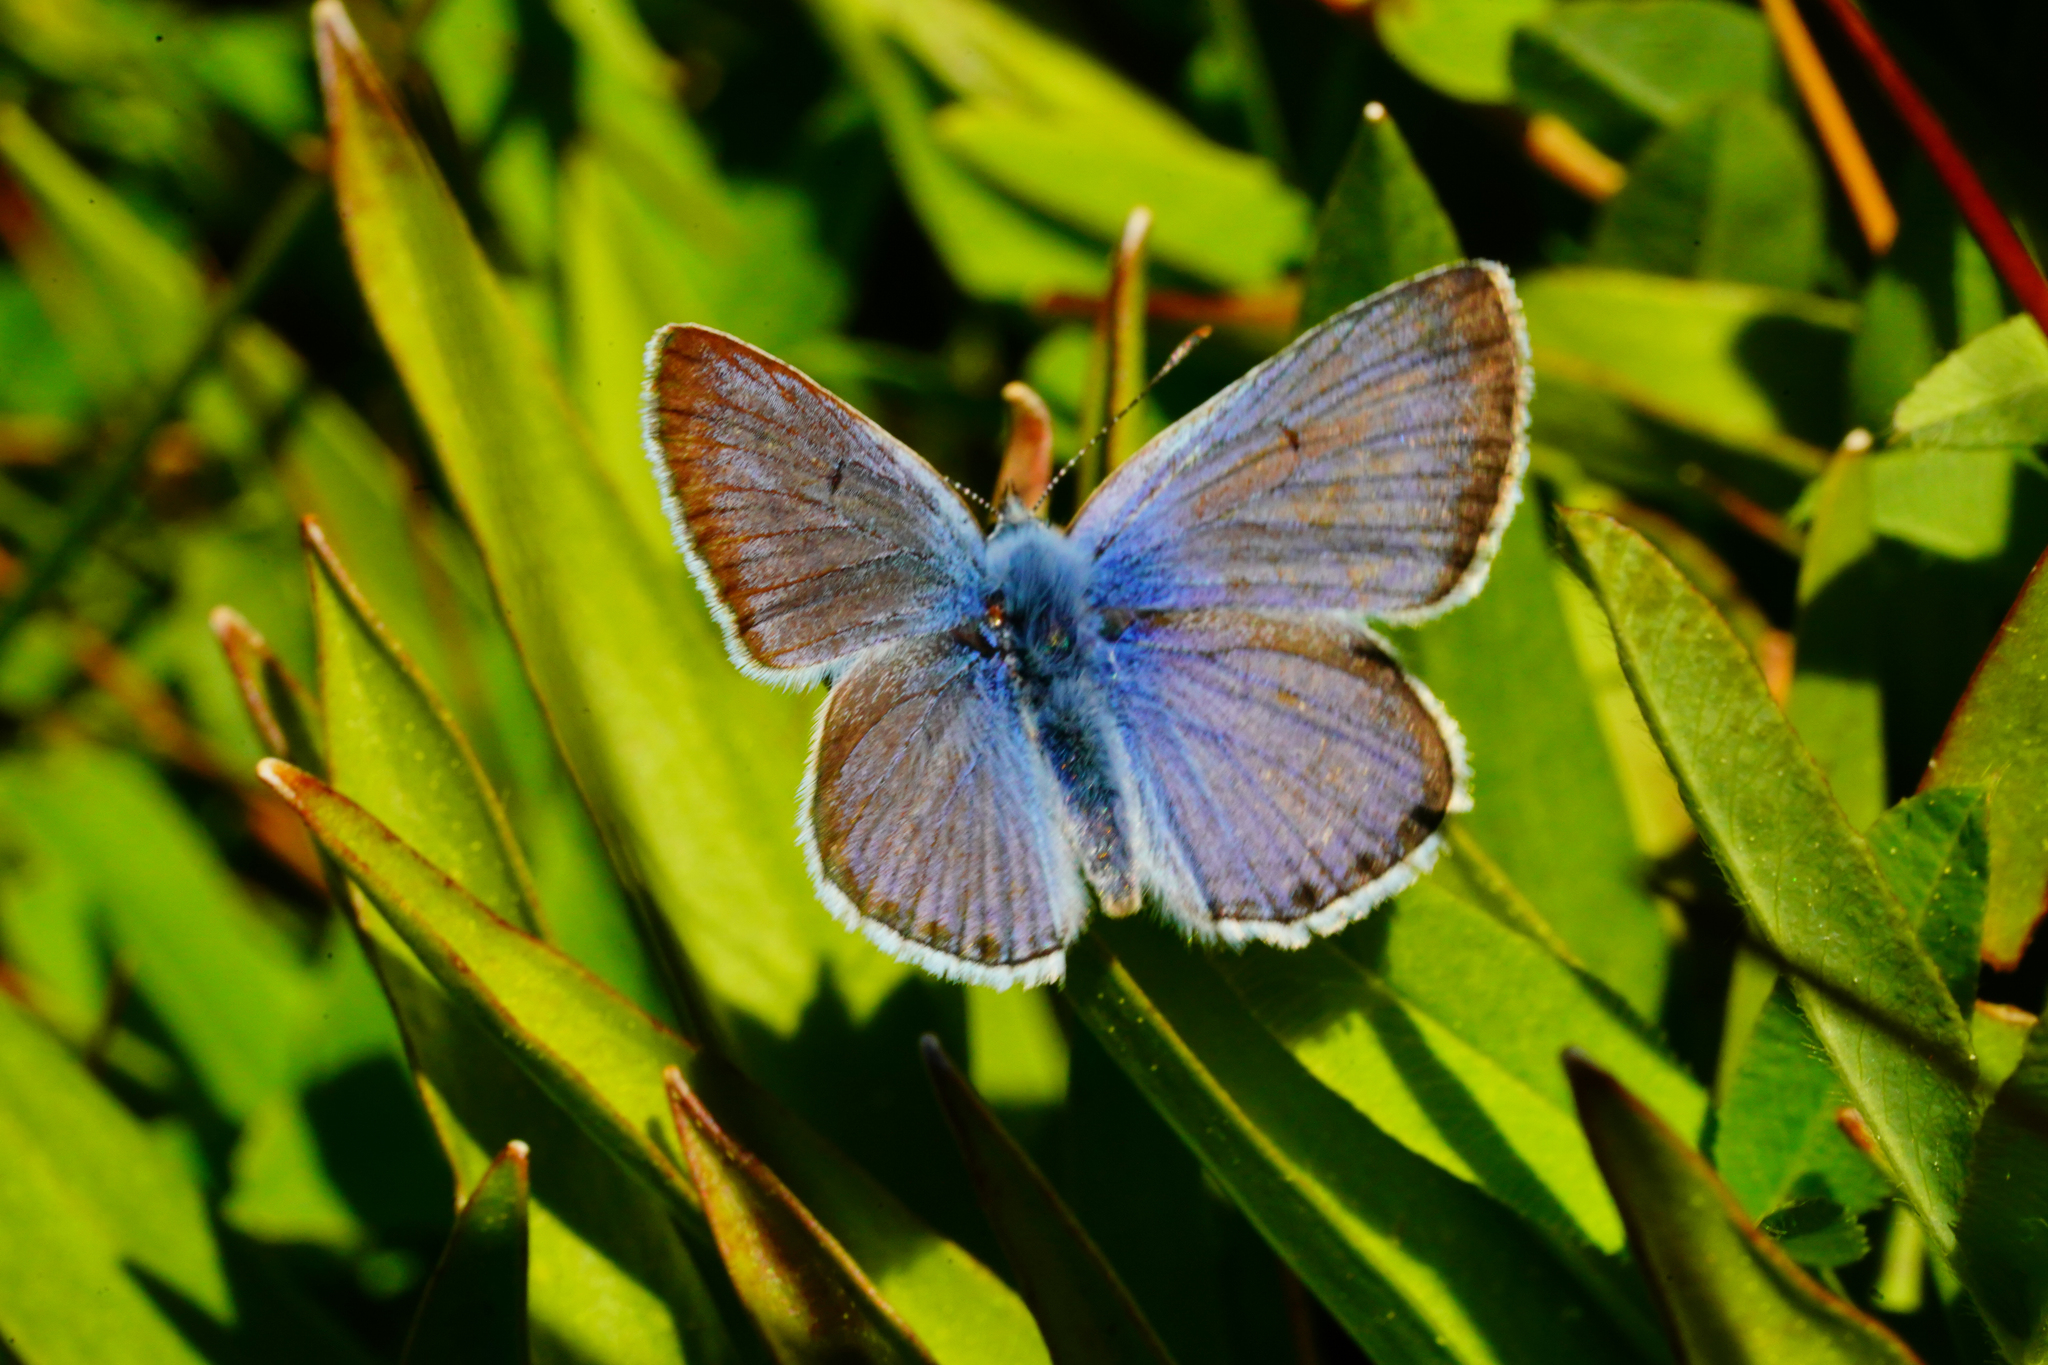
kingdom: Animalia
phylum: Arthropoda
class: Insecta
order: Lepidoptera
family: Lycaenidae
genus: Icaricia
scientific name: Icaricia saepiolus
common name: Greenish blue
